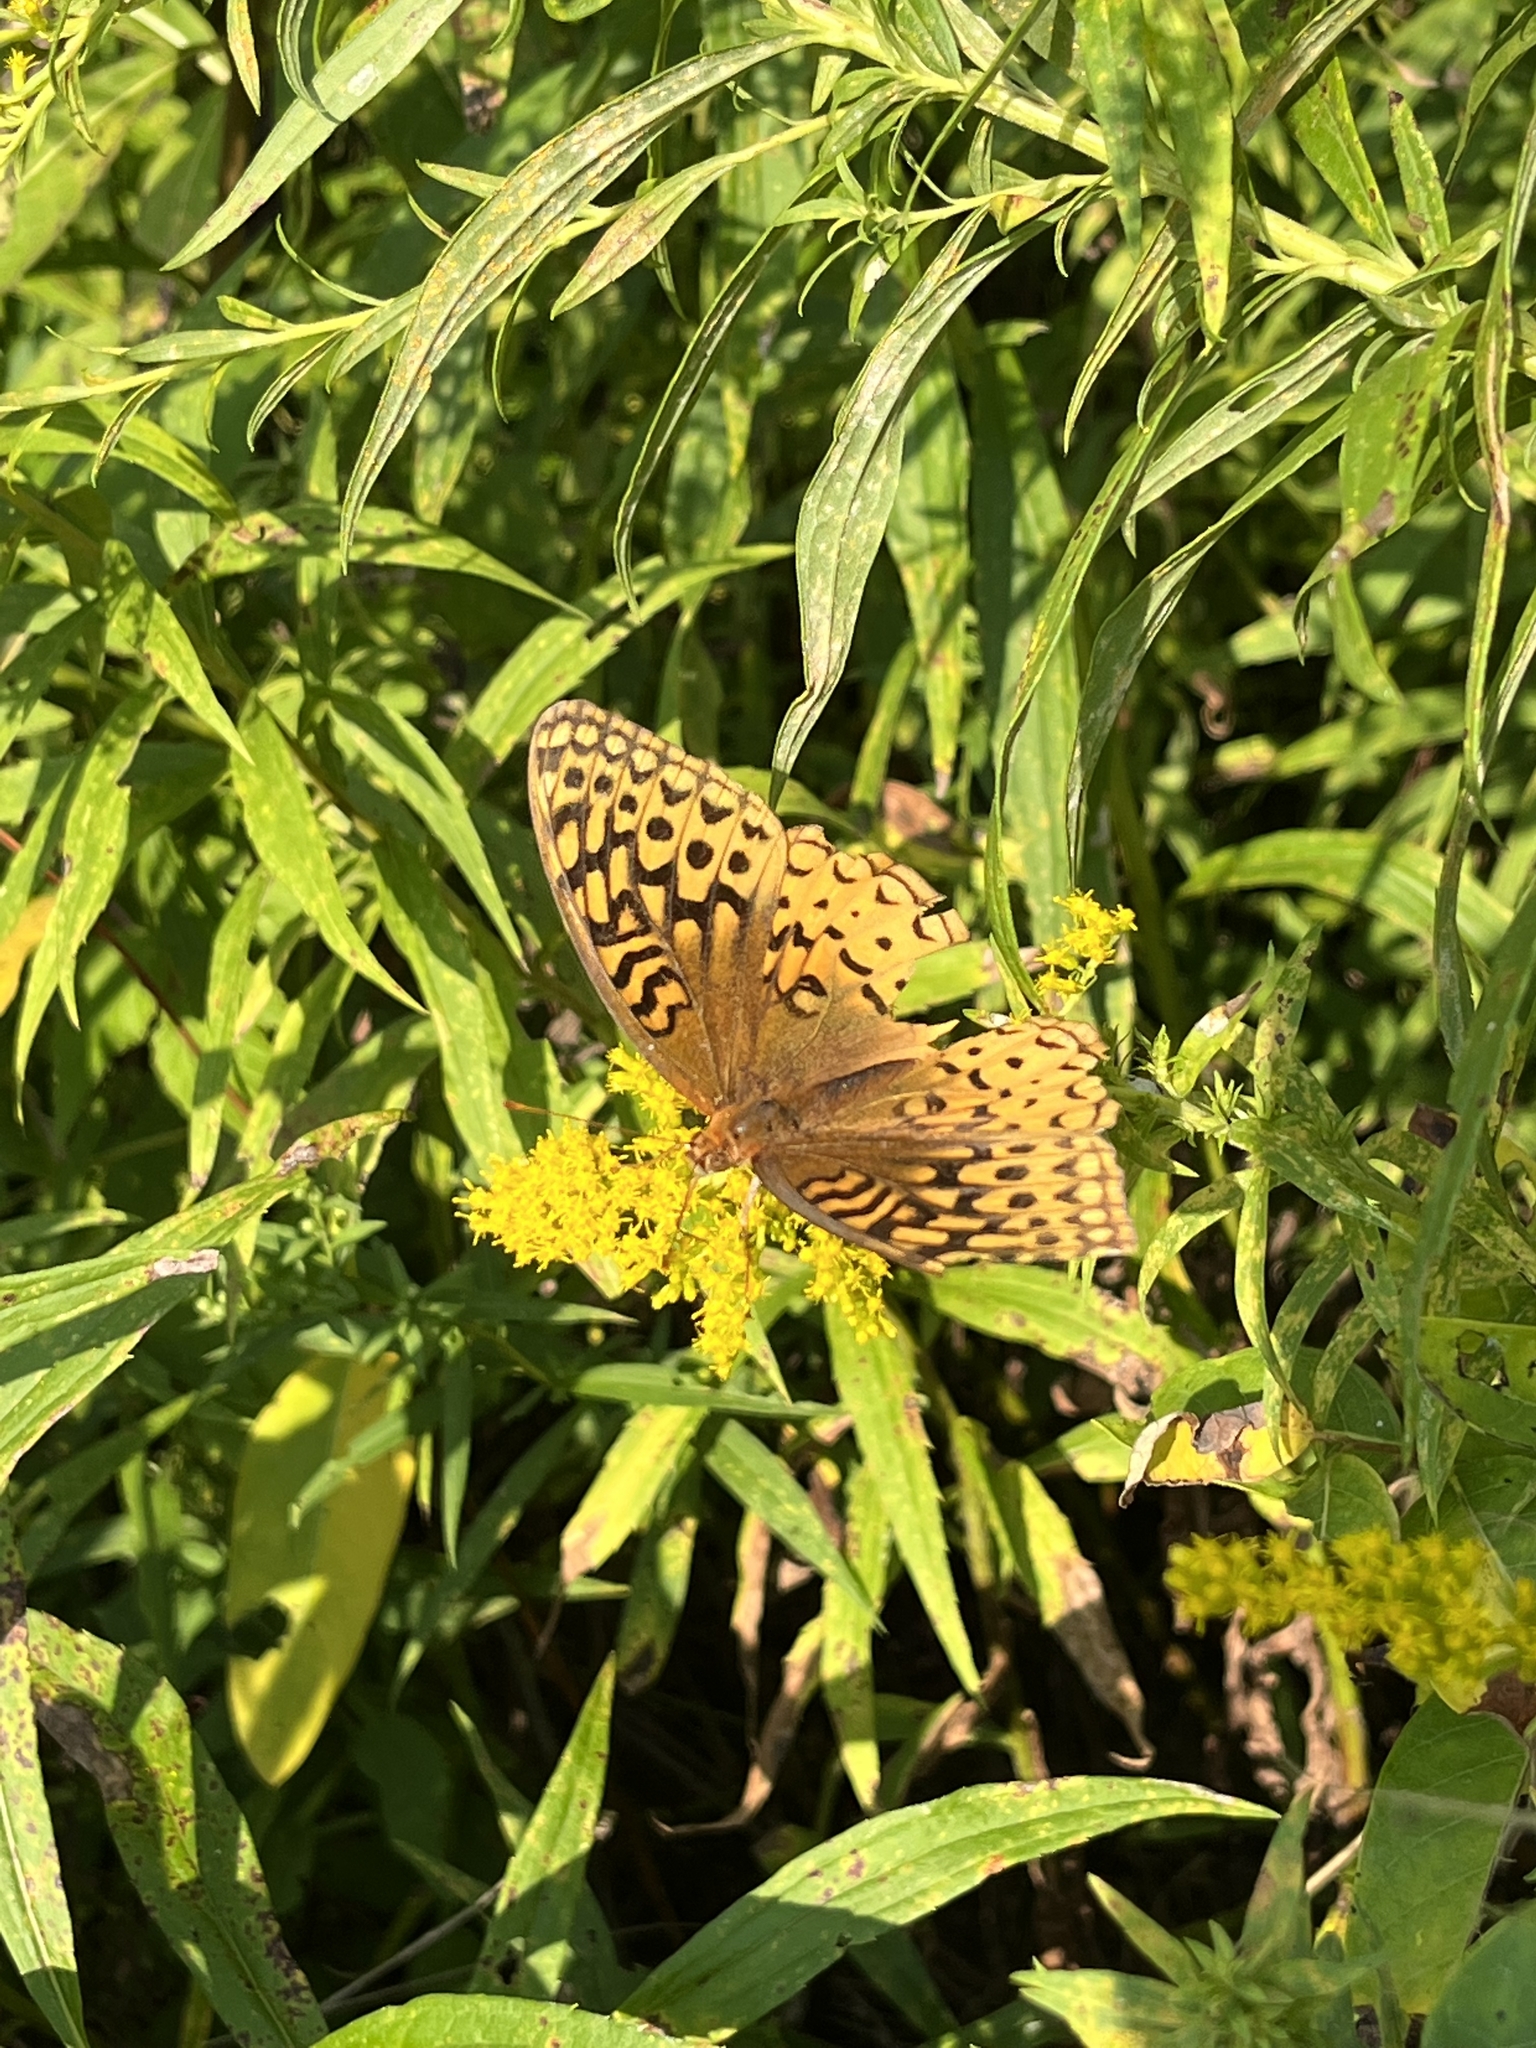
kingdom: Animalia
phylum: Arthropoda
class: Insecta
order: Lepidoptera
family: Nymphalidae
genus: Speyeria
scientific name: Speyeria cybele
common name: Great spangled fritillary
